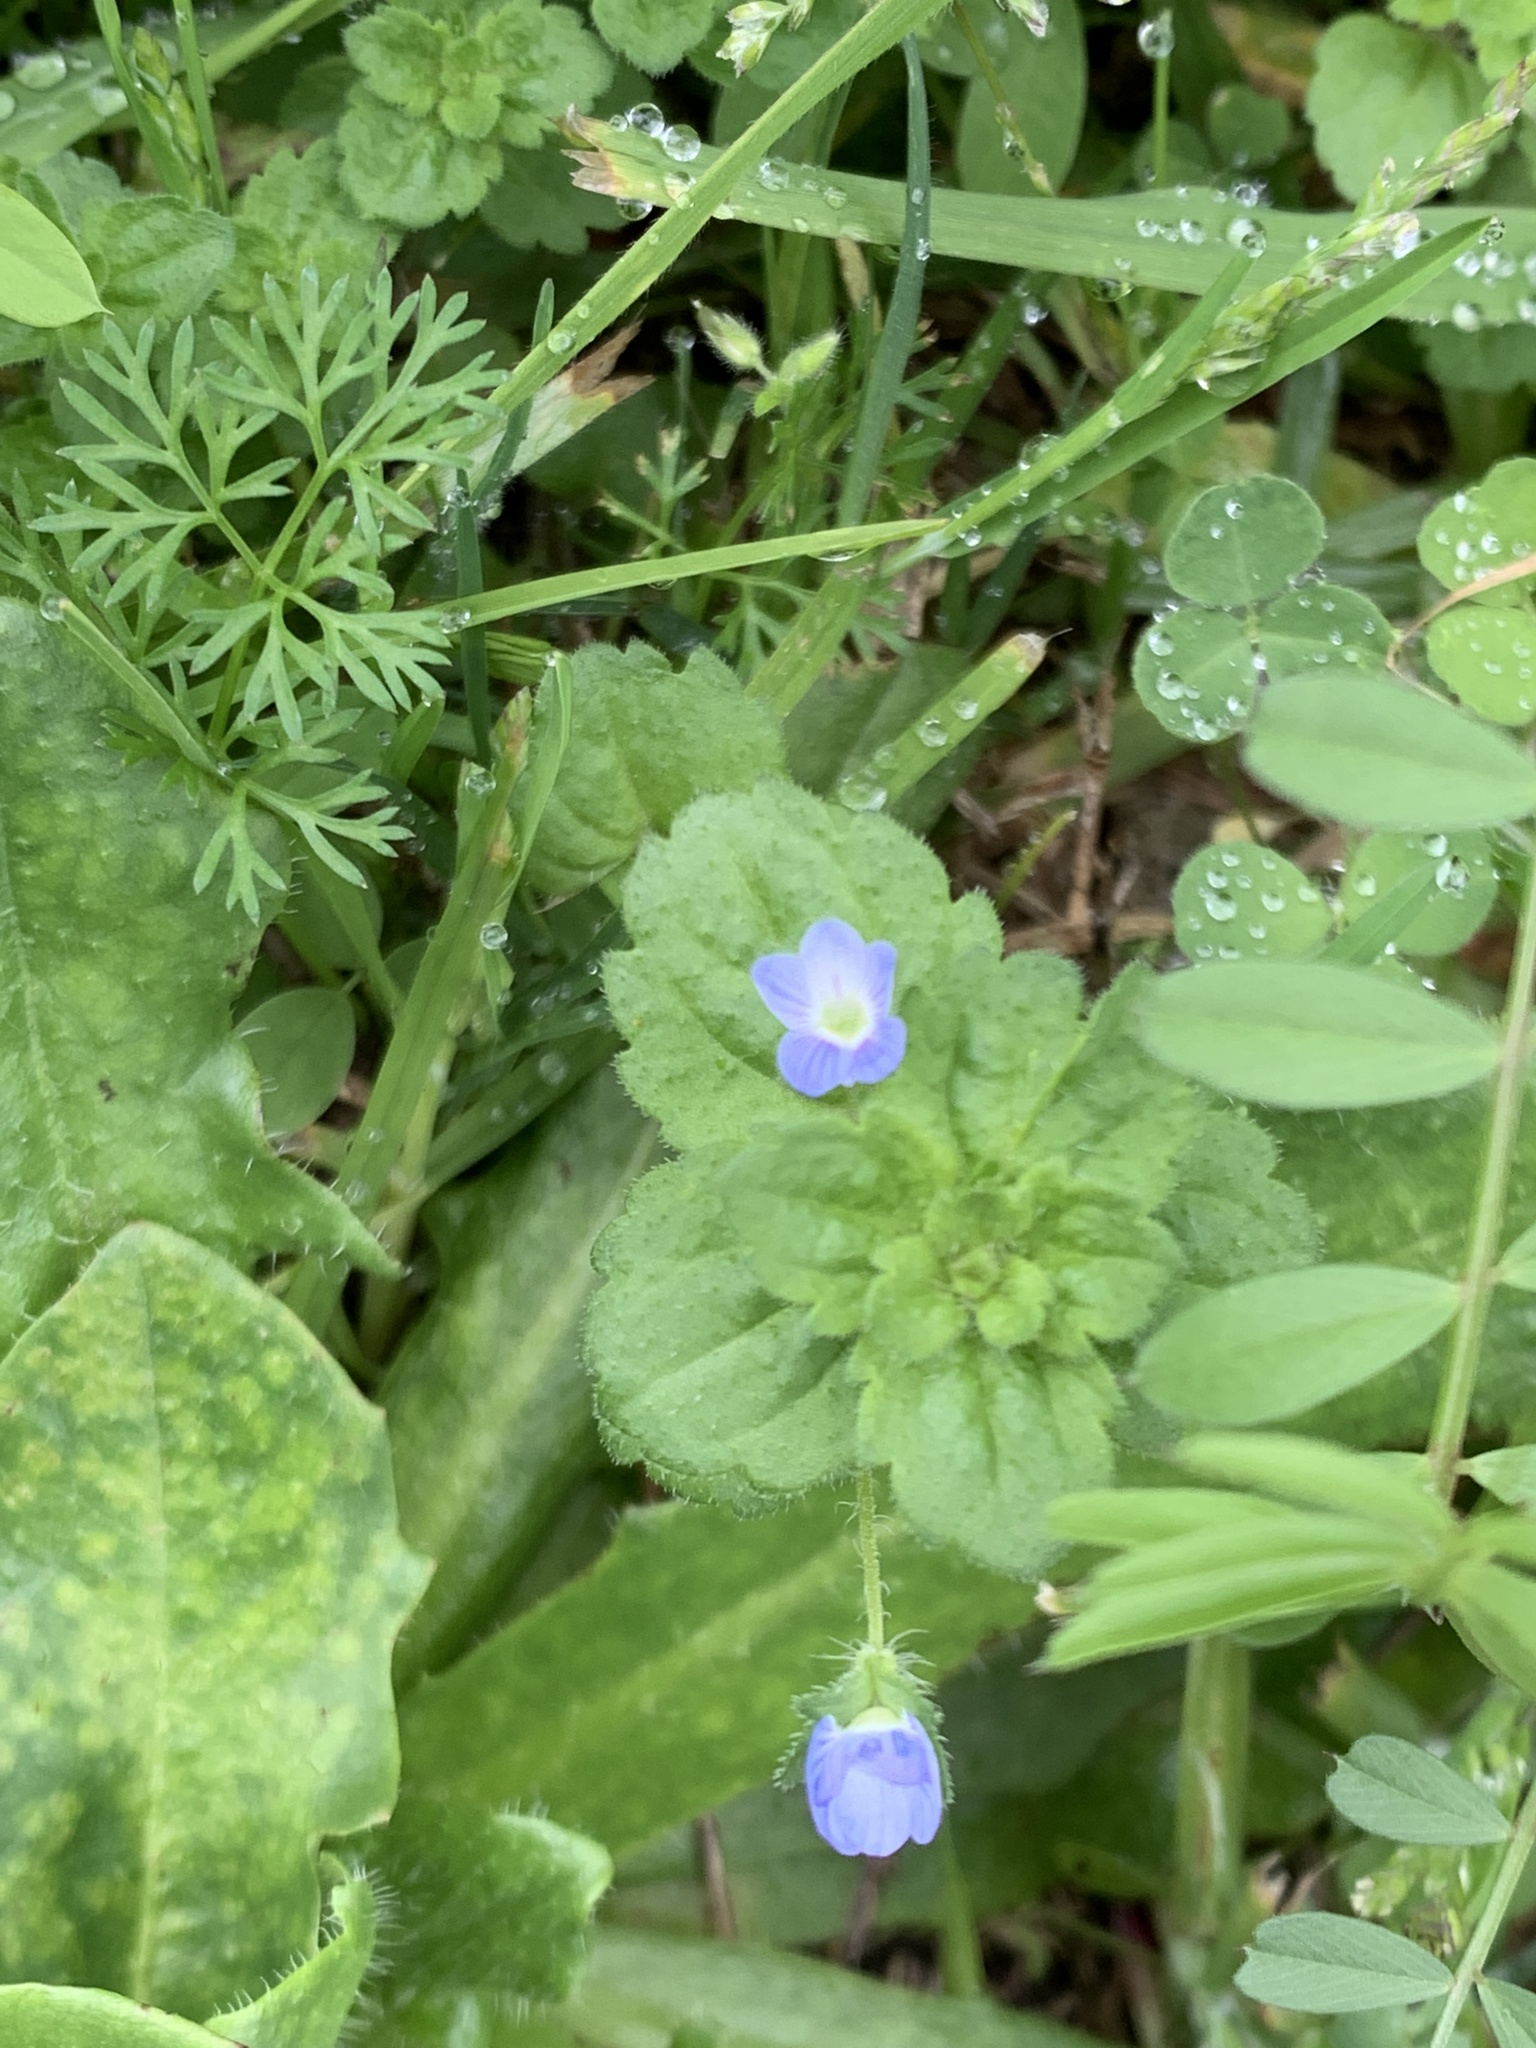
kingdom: Plantae
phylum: Tracheophyta
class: Magnoliopsida
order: Lamiales
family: Plantaginaceae
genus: Veronica
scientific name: Veronica persica
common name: Common field-speedwell
